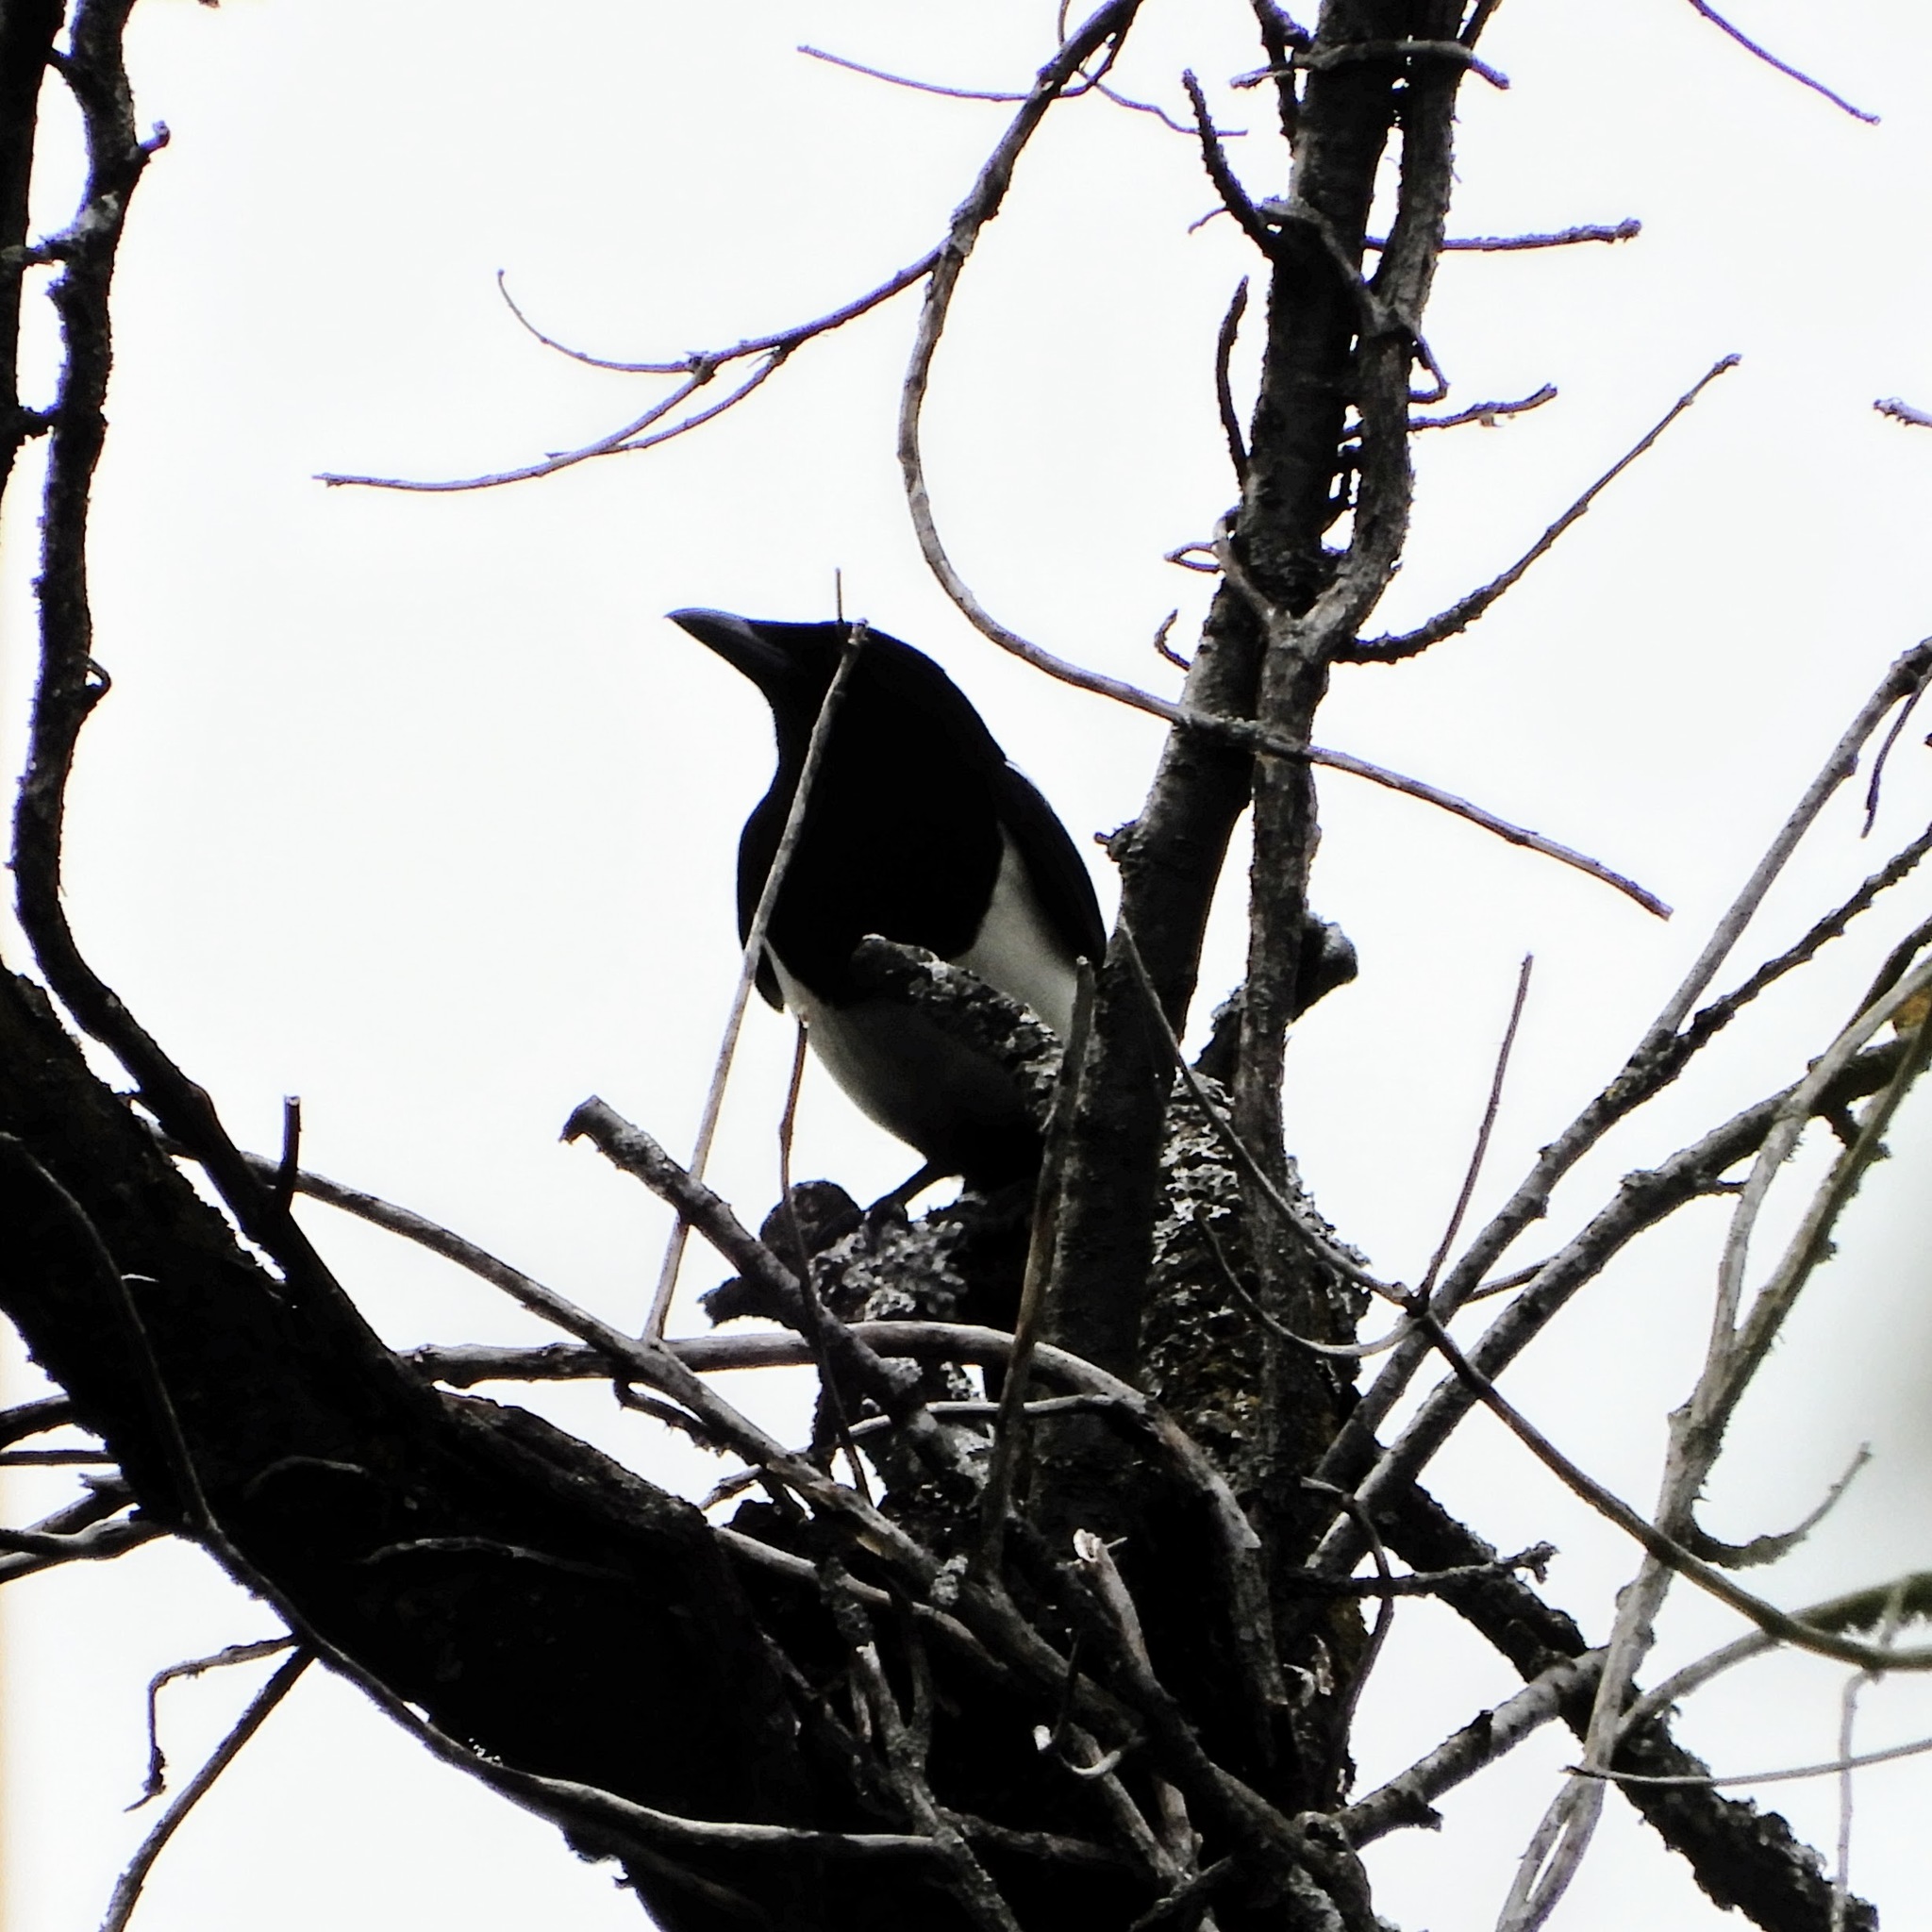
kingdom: Animalia
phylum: Chordata
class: Aves
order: Passeriformes
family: Corvidae
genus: Pica
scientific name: Pica pica
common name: Eurasian magpie
